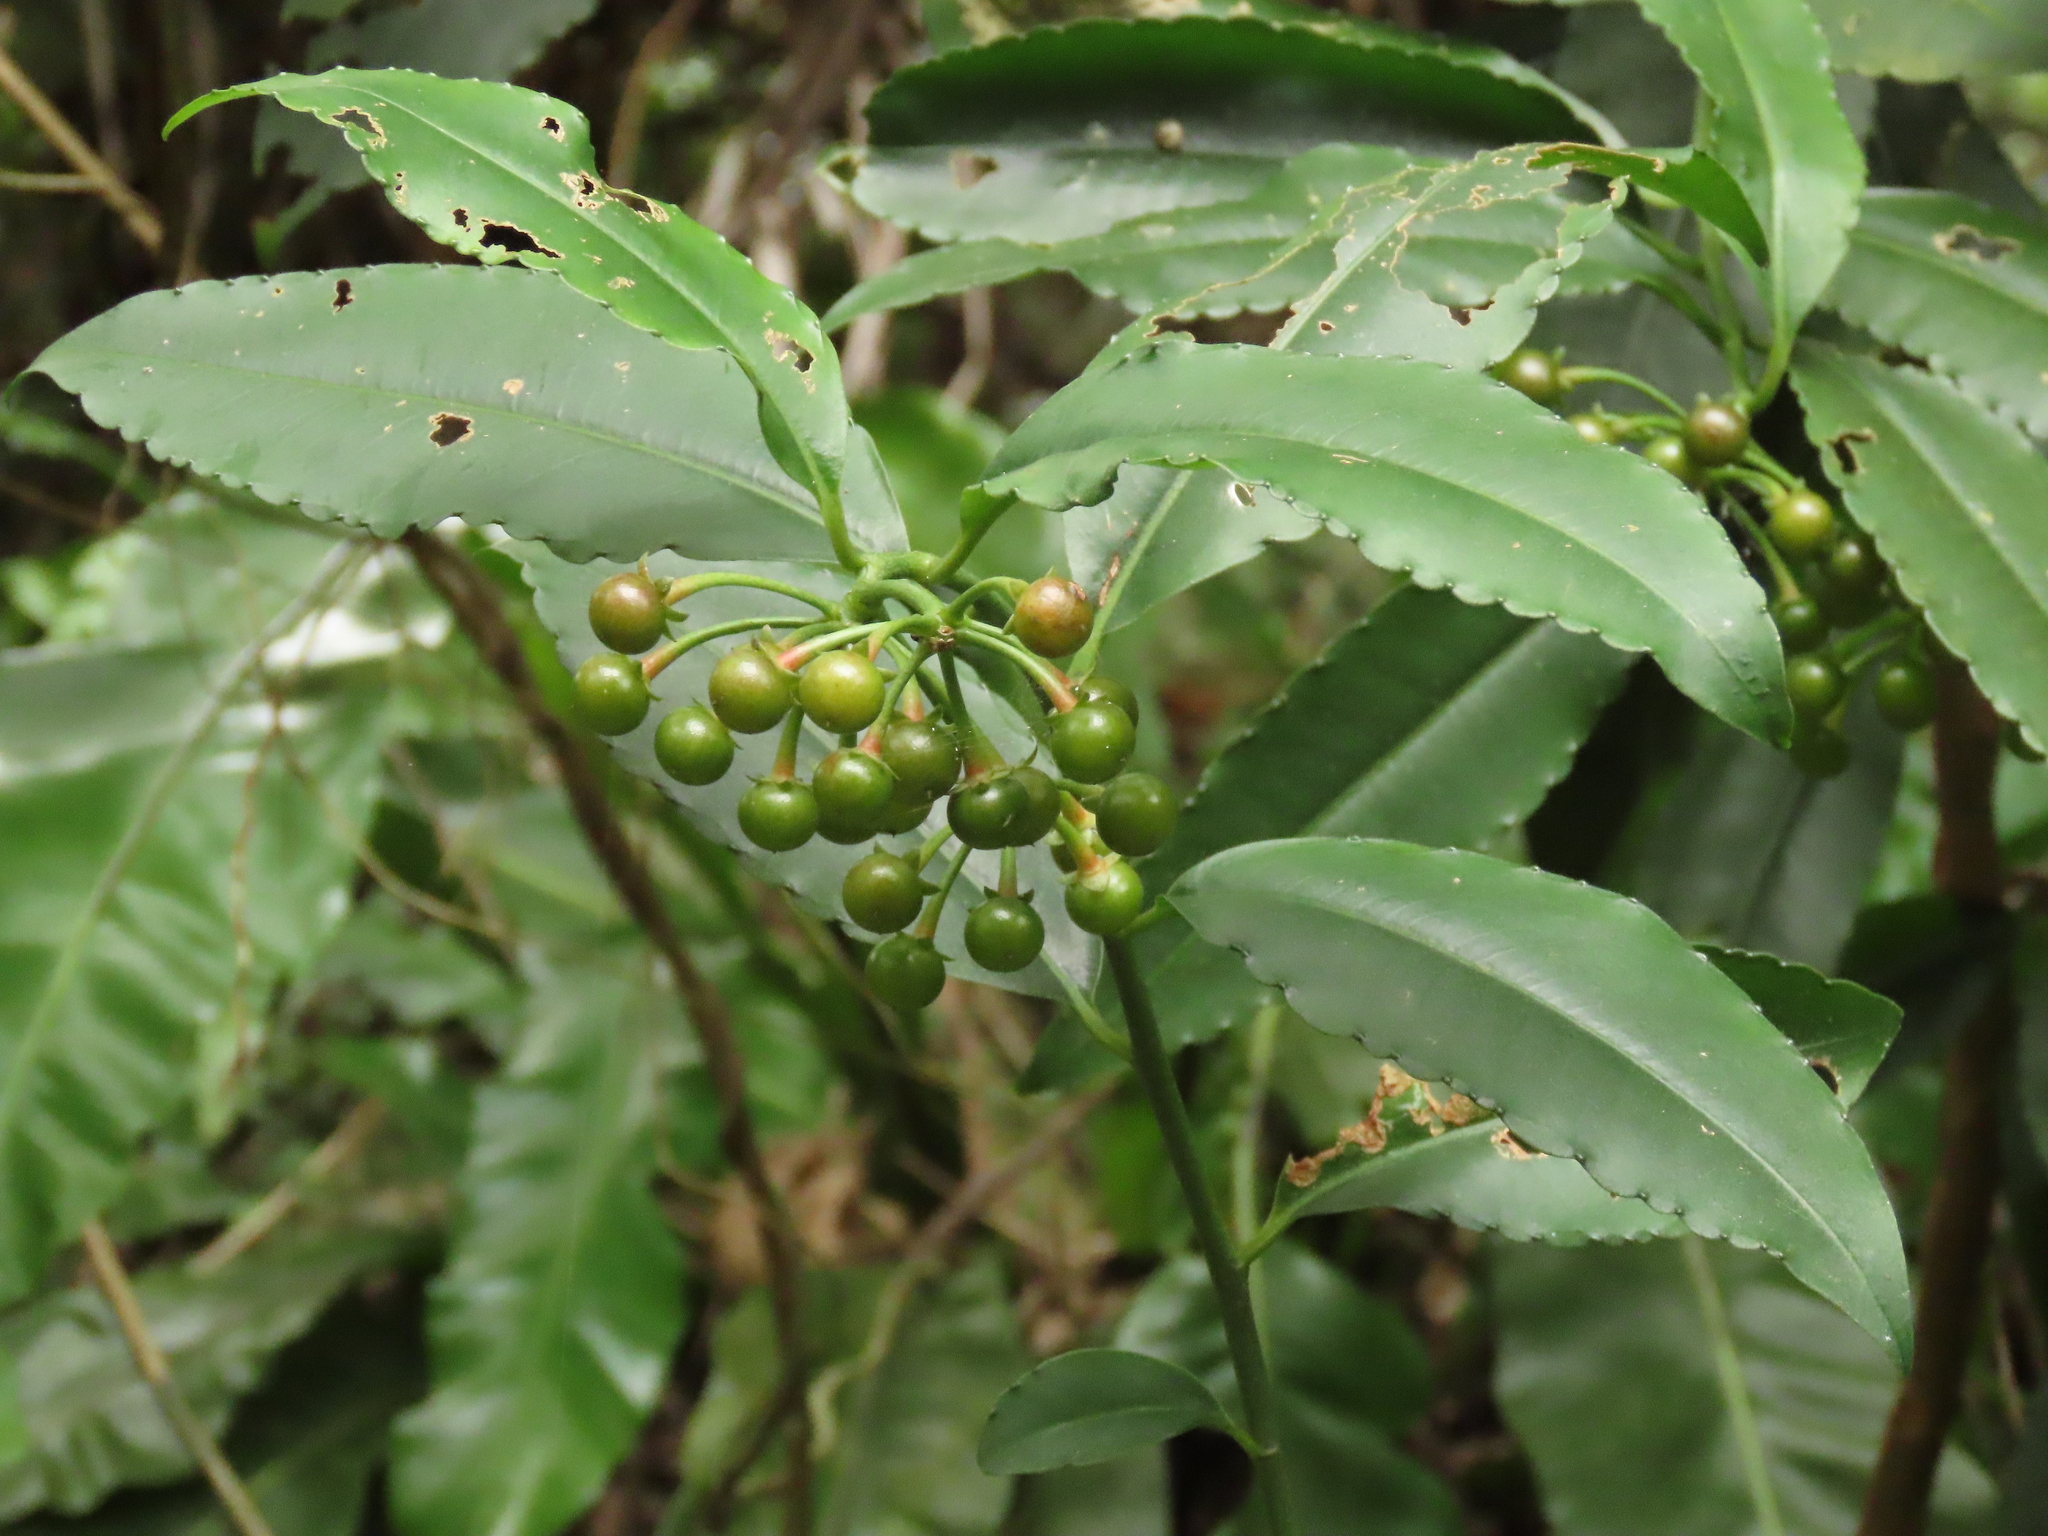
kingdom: Plantae
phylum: Tracheophyta
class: Magnoliopsida
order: Ericales
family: Primulaceae
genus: Ardisia
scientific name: Ardisia polysticta
